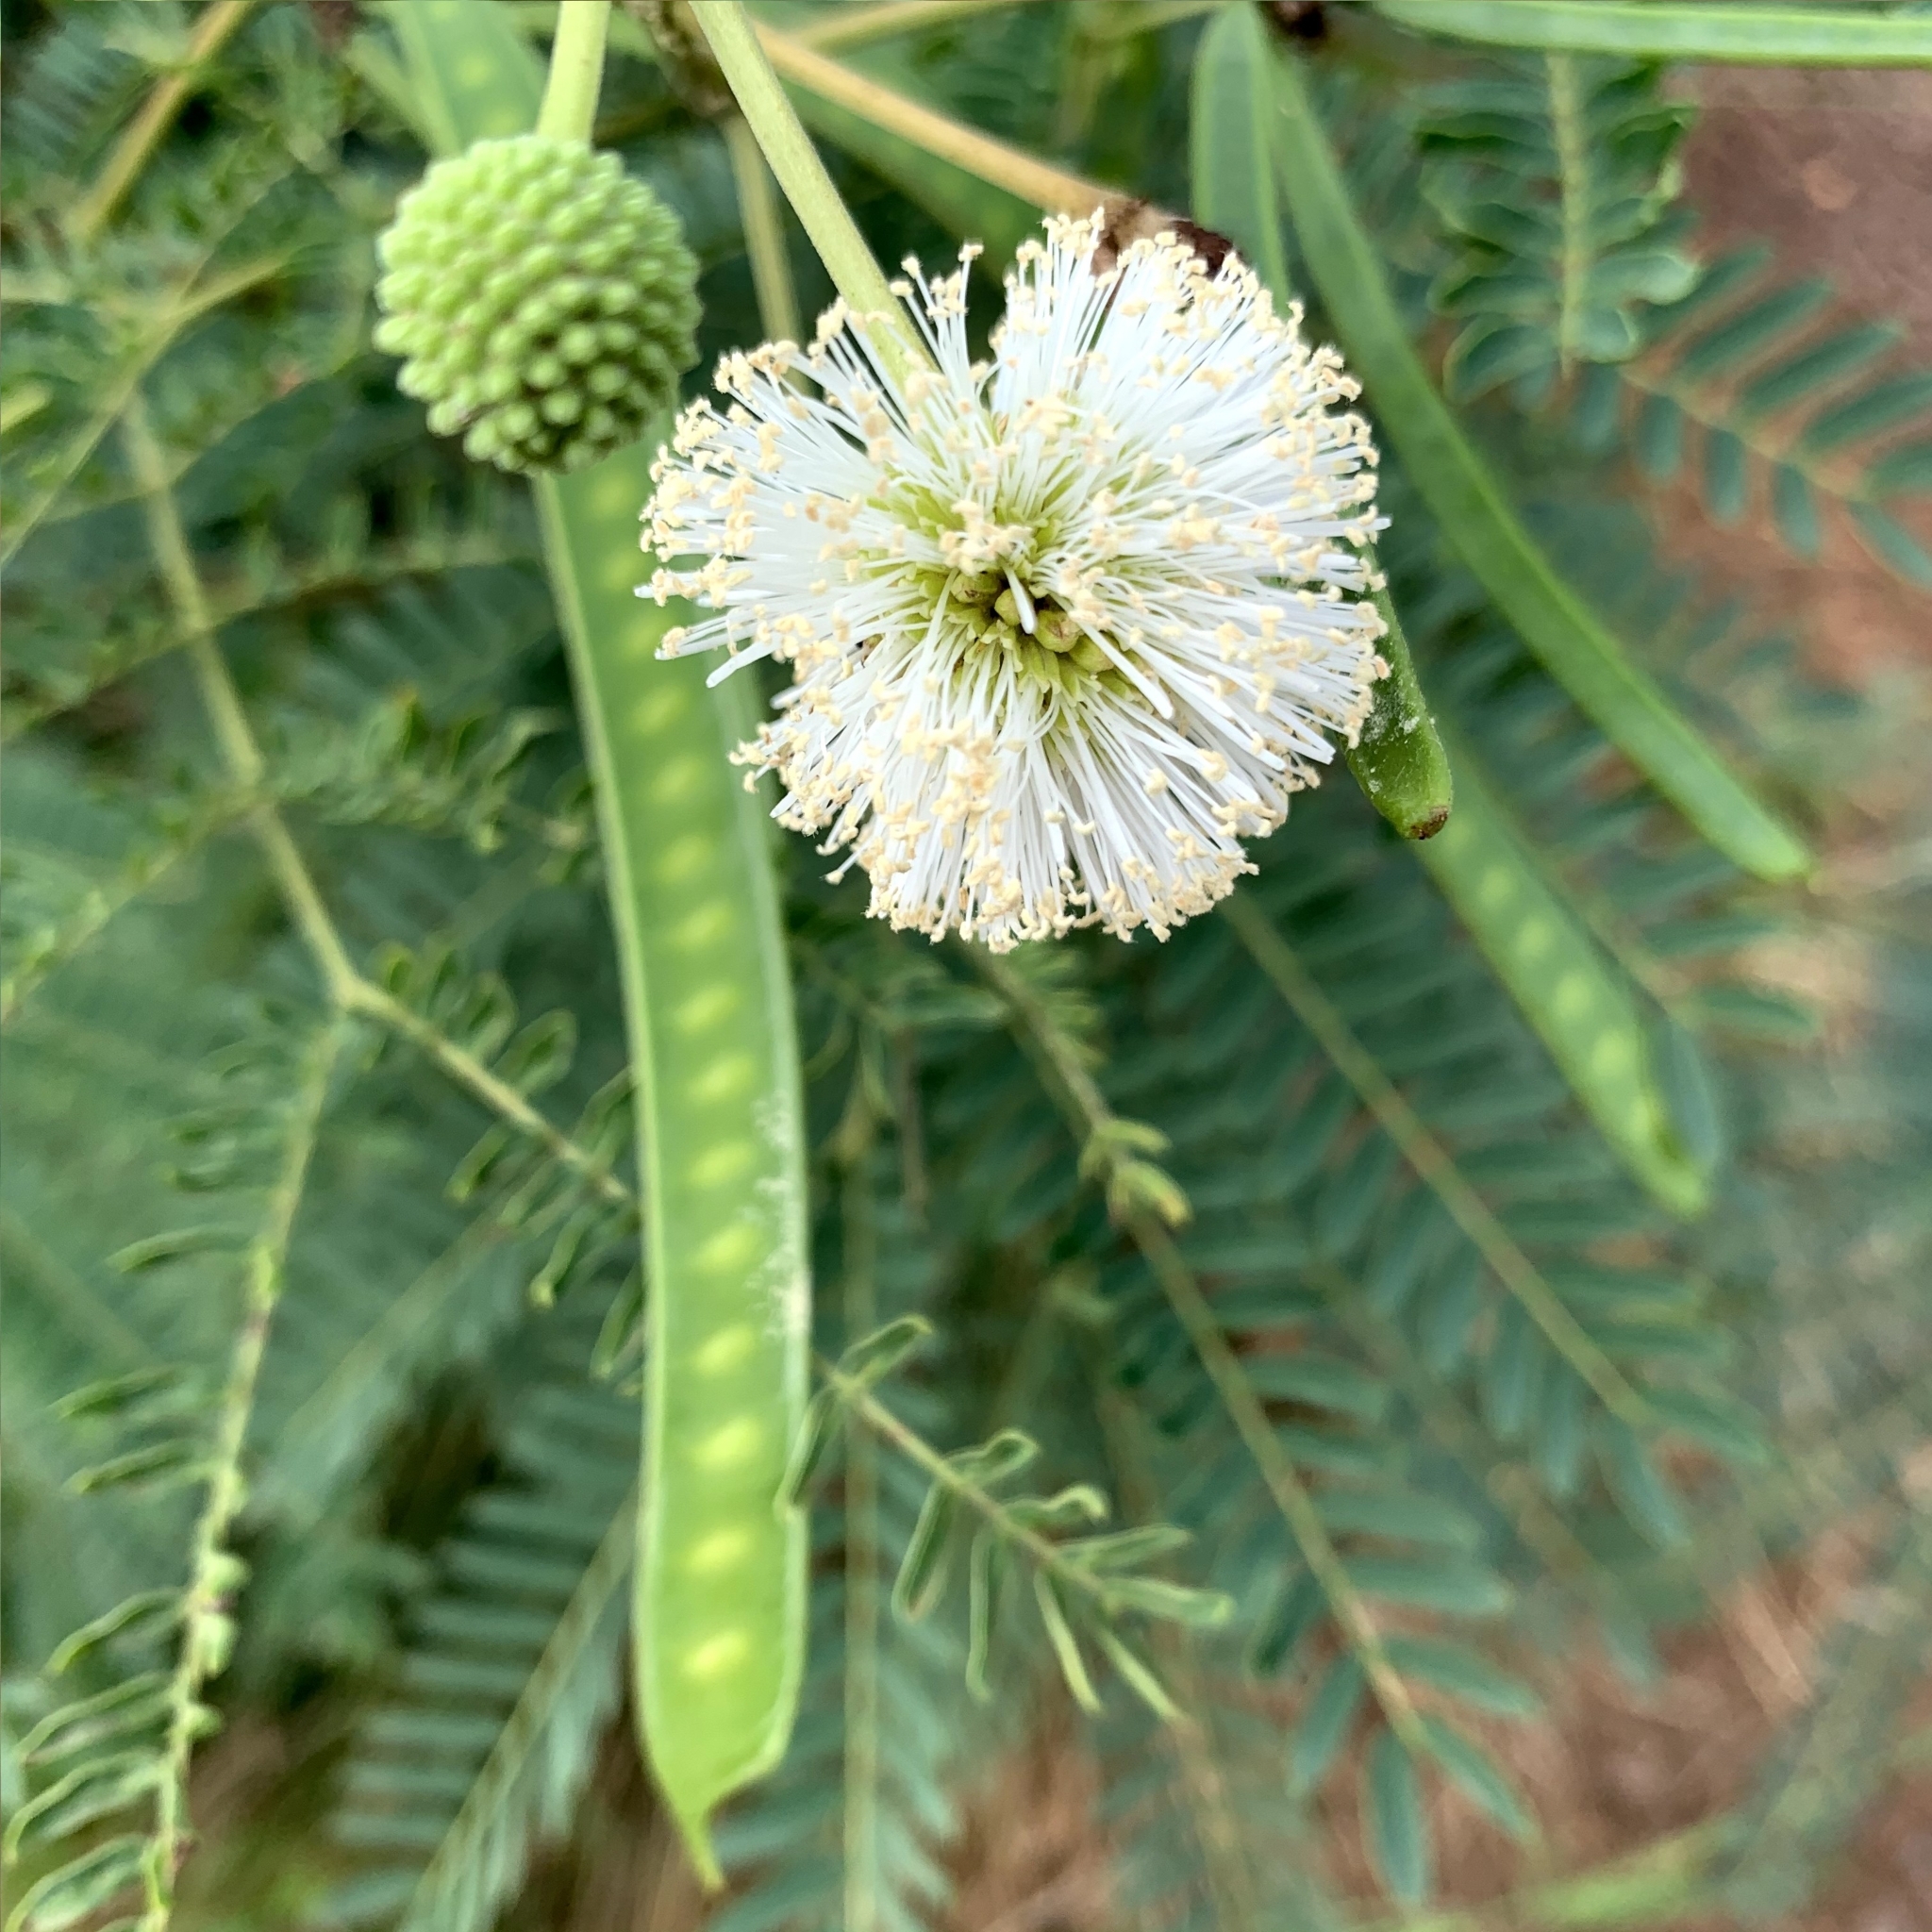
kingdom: Plantae
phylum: Tracheophyta
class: Magnoliopsida
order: Fabales
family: Fabaceae
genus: Leucaena
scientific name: Leucaena leucocephala
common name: White leadtree
